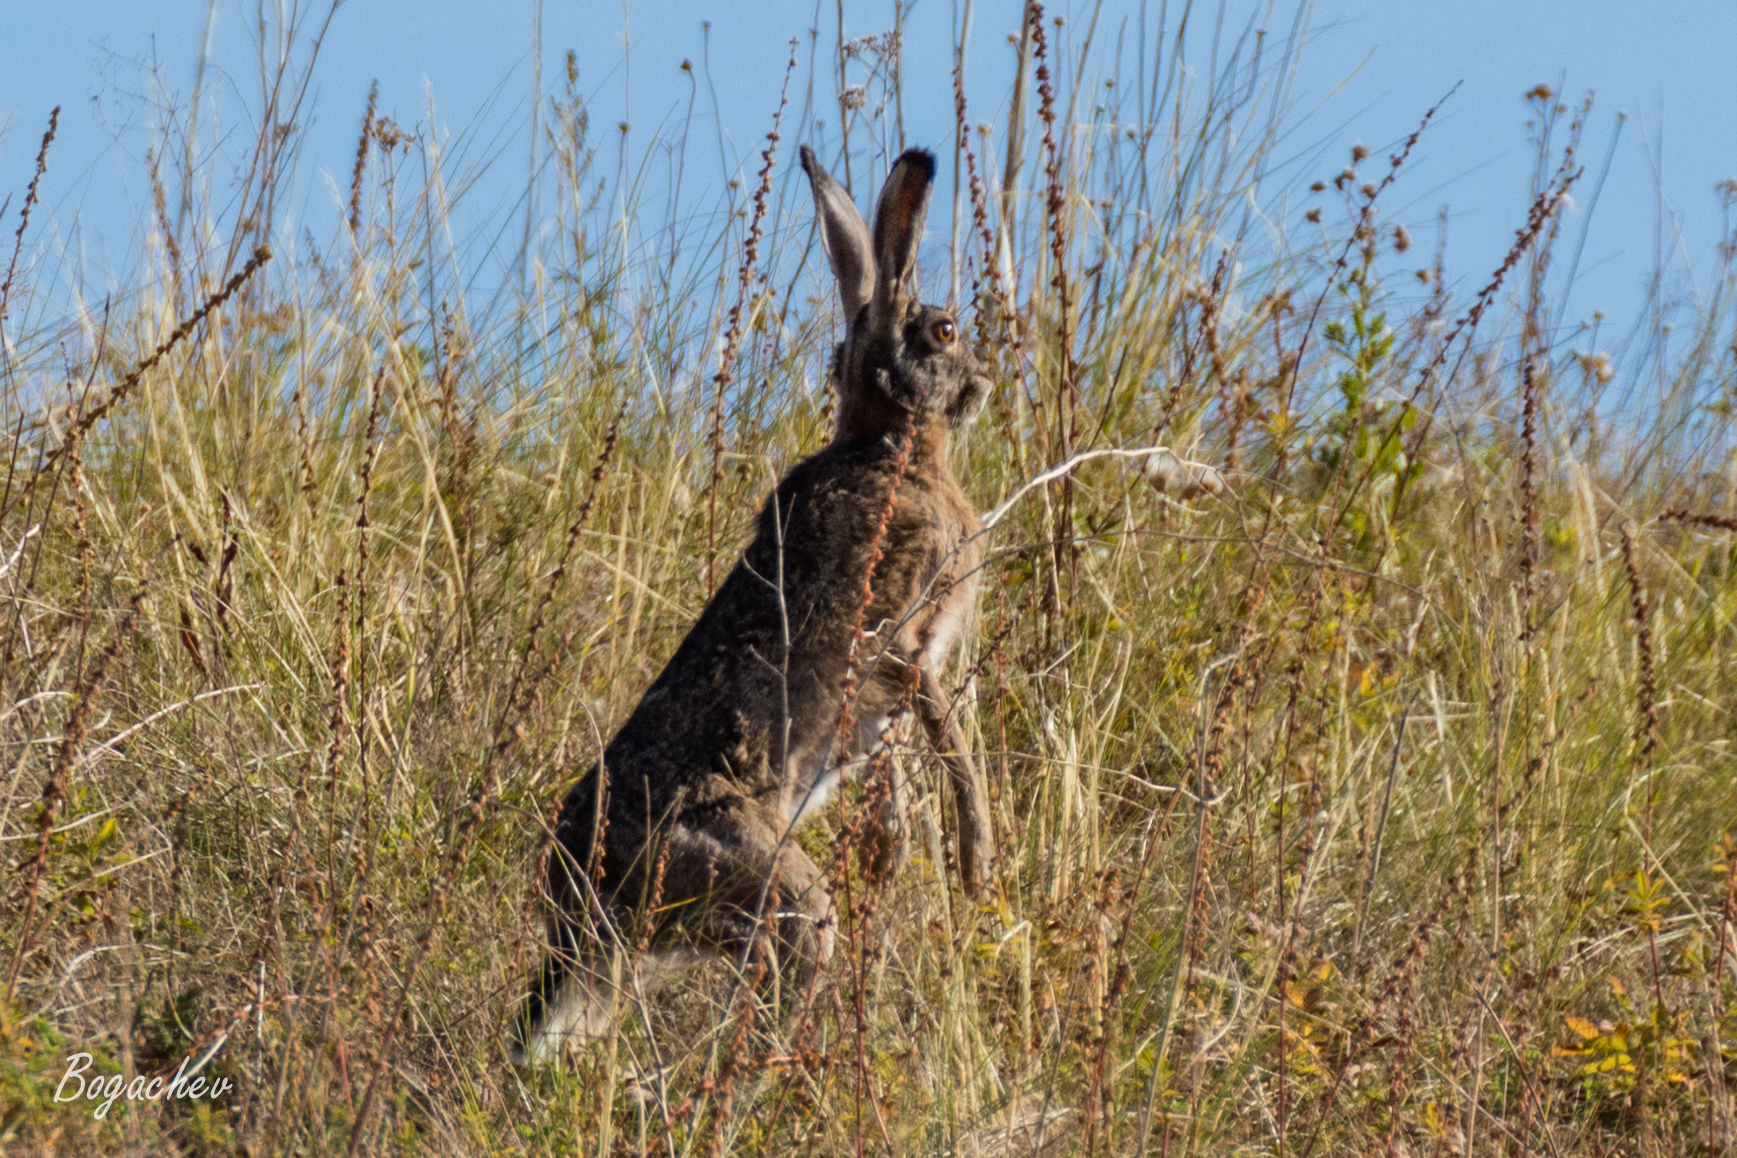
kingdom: Animalia
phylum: Chordata
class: Mammalia
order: Lagomorpha
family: Leporidae
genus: Lepus
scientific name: Lepus europaeus
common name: European hare
